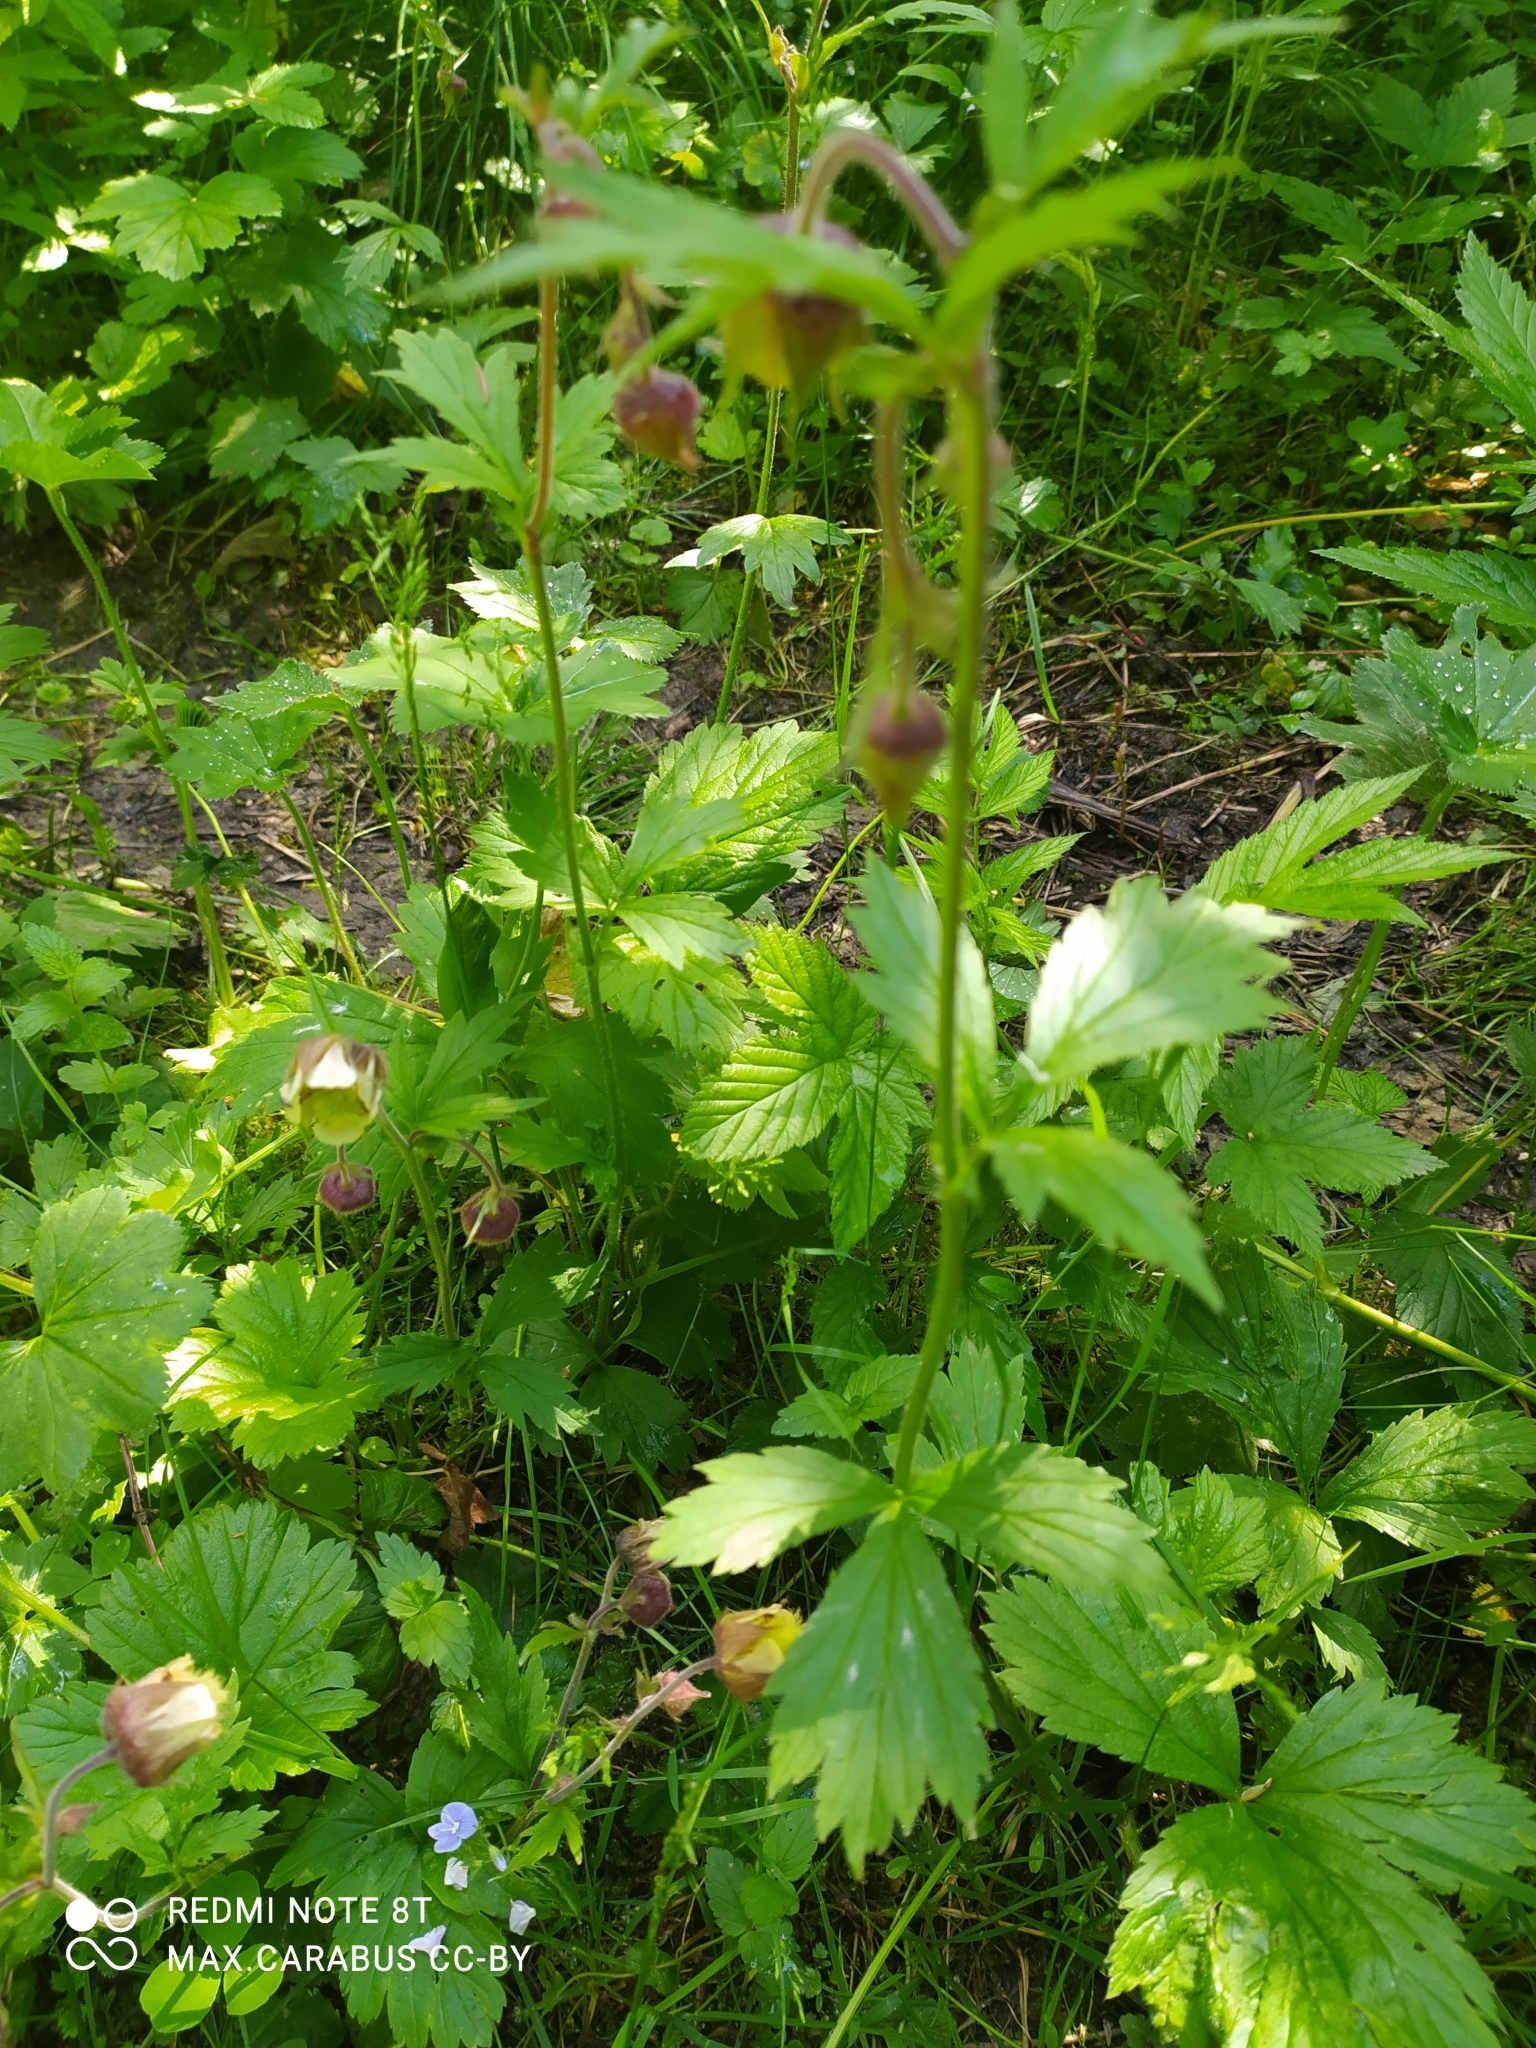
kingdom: Plantae
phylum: Tracheophyta
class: Magnoliopsida
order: Rosales
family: Rosaceae
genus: Geum
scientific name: Geum rivale
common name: Water avens
